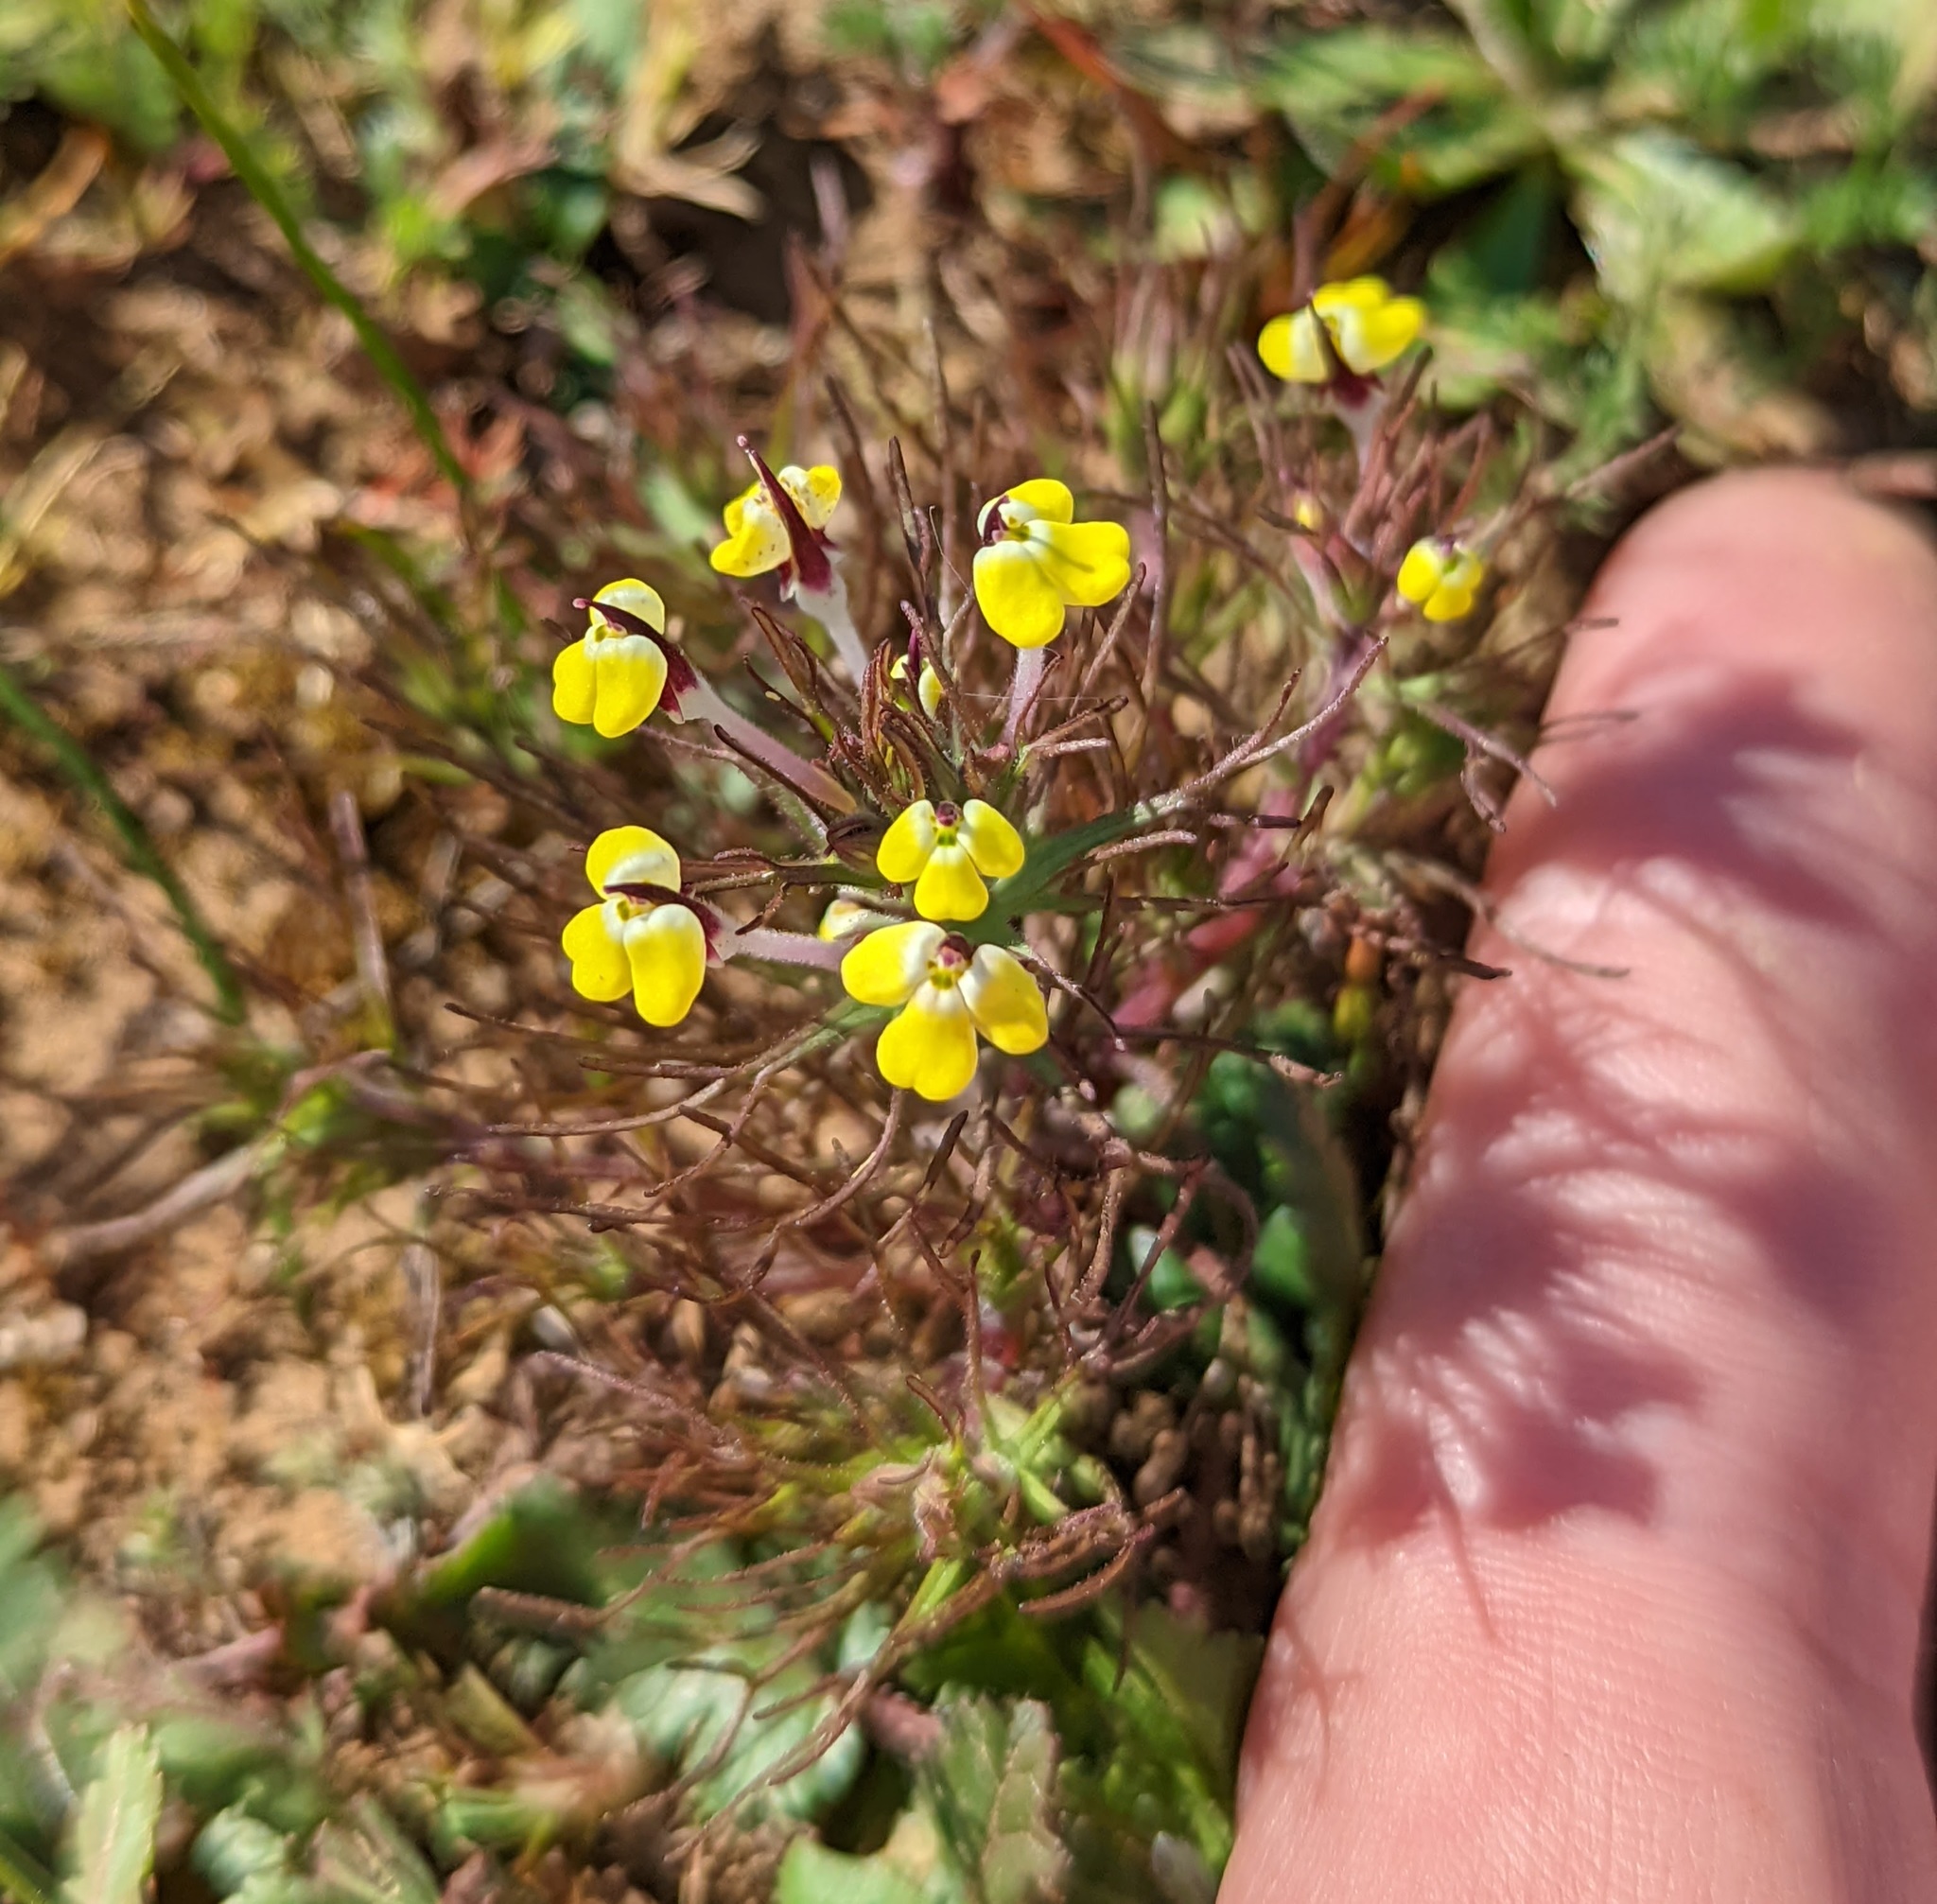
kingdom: Plantae
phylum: Tracheophyta
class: Magnoliopsida
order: Lamiales
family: Orobanchaceae
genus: Triphysaria
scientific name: Triphysaria eriantha
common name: Johnny-tuck
